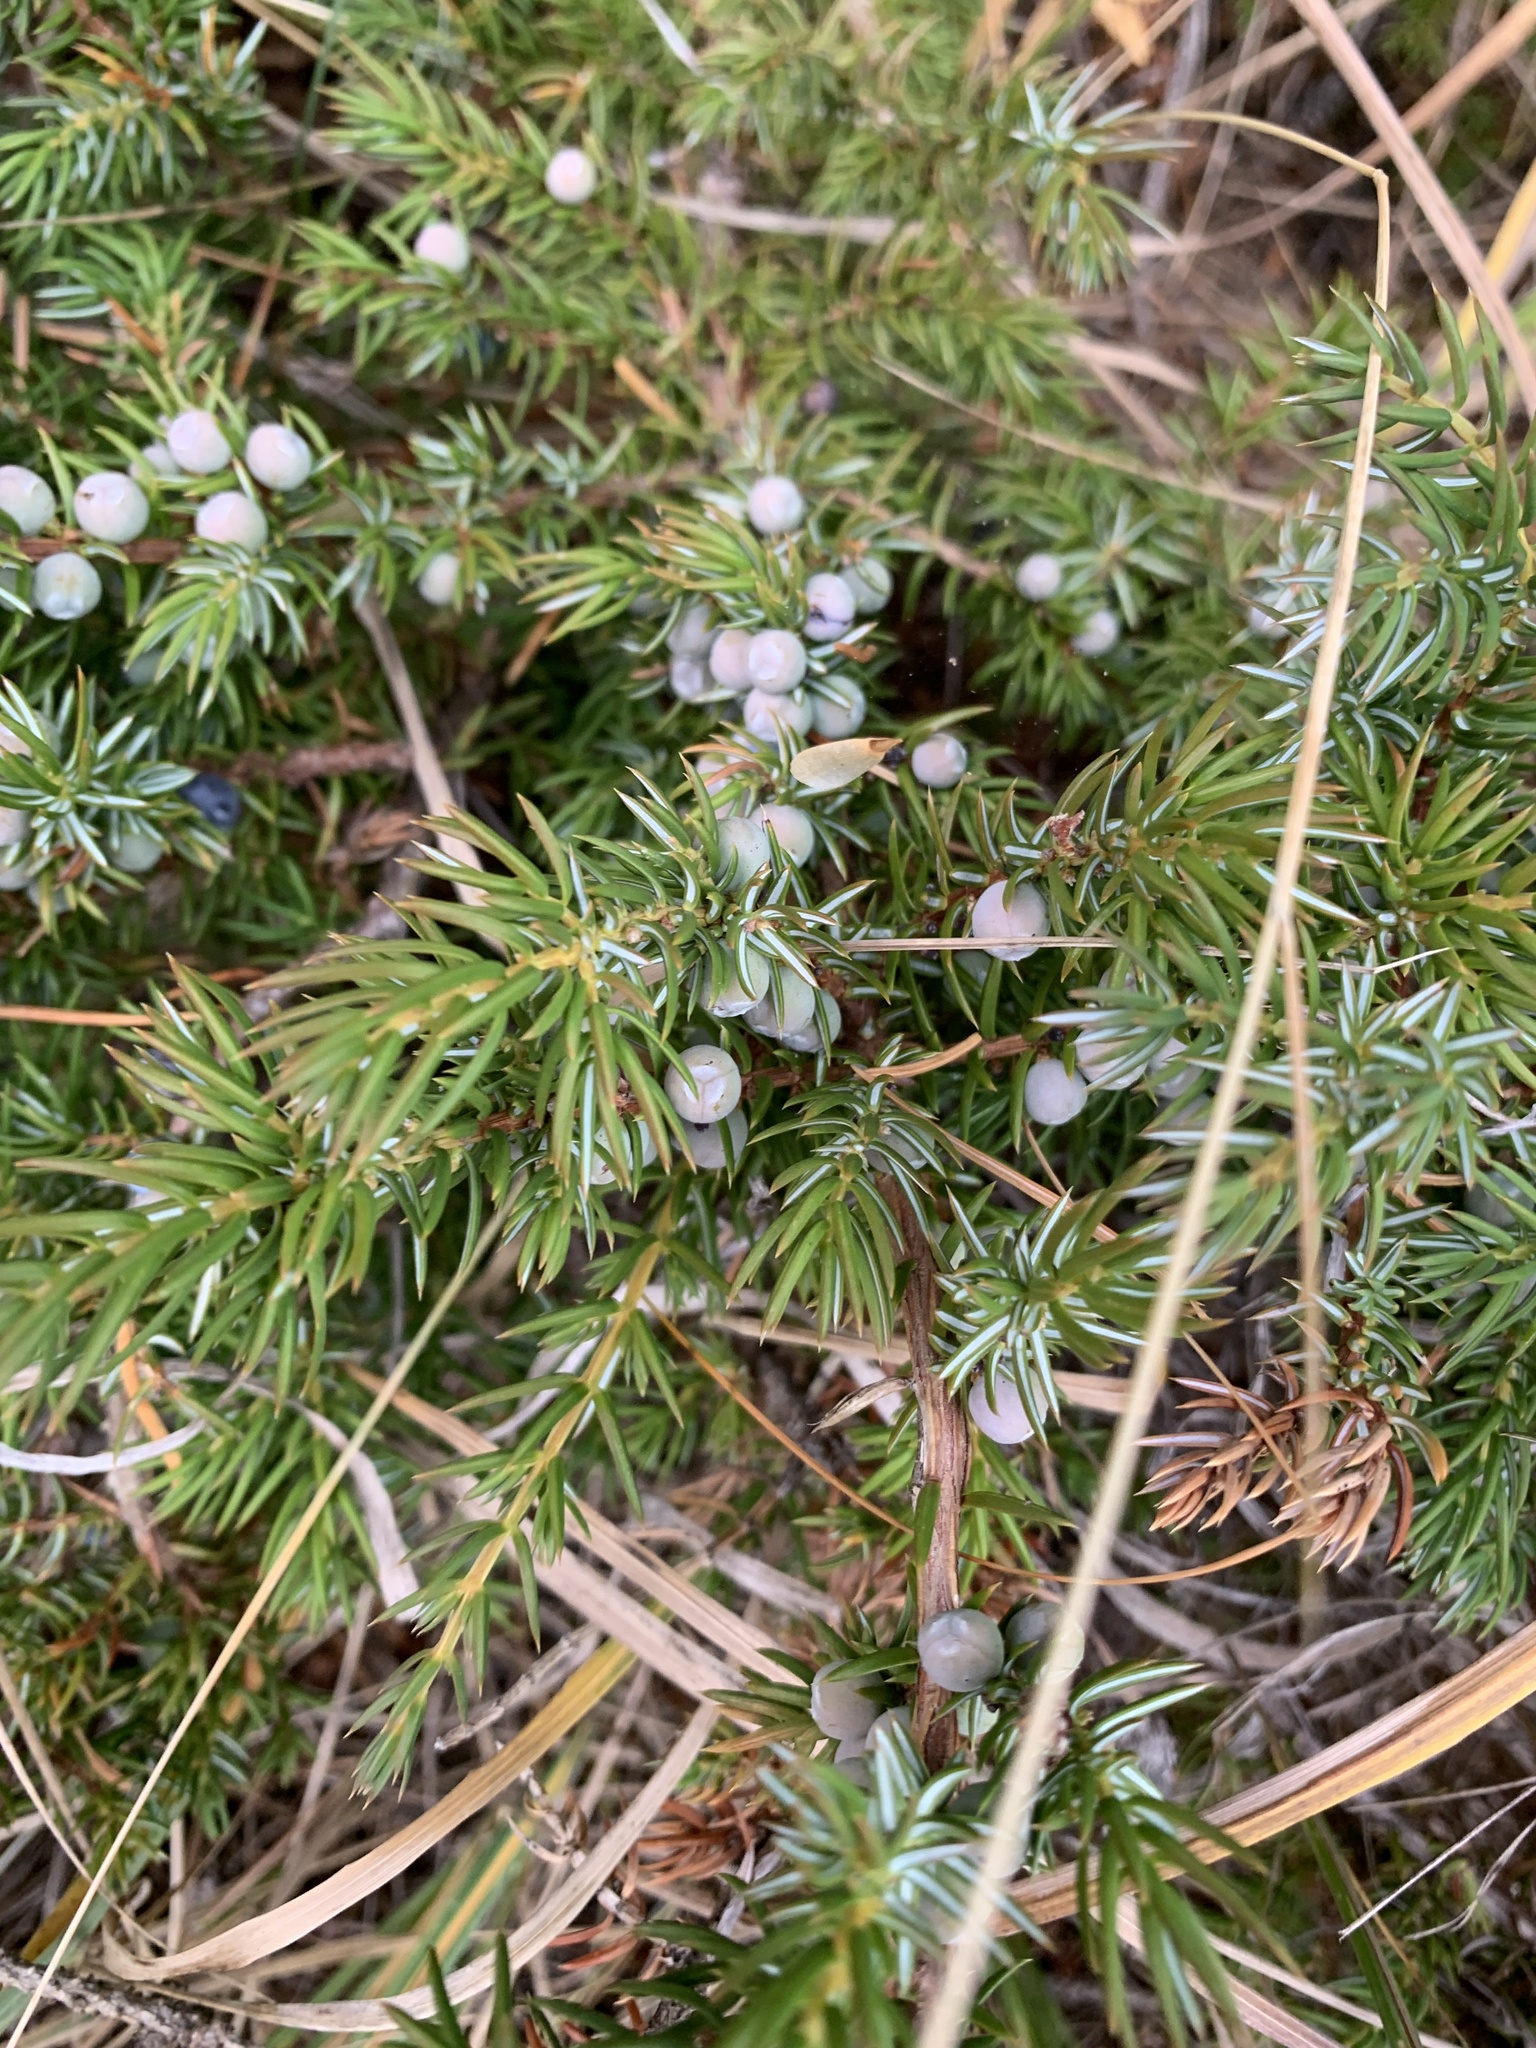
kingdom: Plantae
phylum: Tracheophyta
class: Pinopsida
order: Pinales
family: Cupressaceae
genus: Juniperus
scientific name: Juniperus communis
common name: Common juniper
